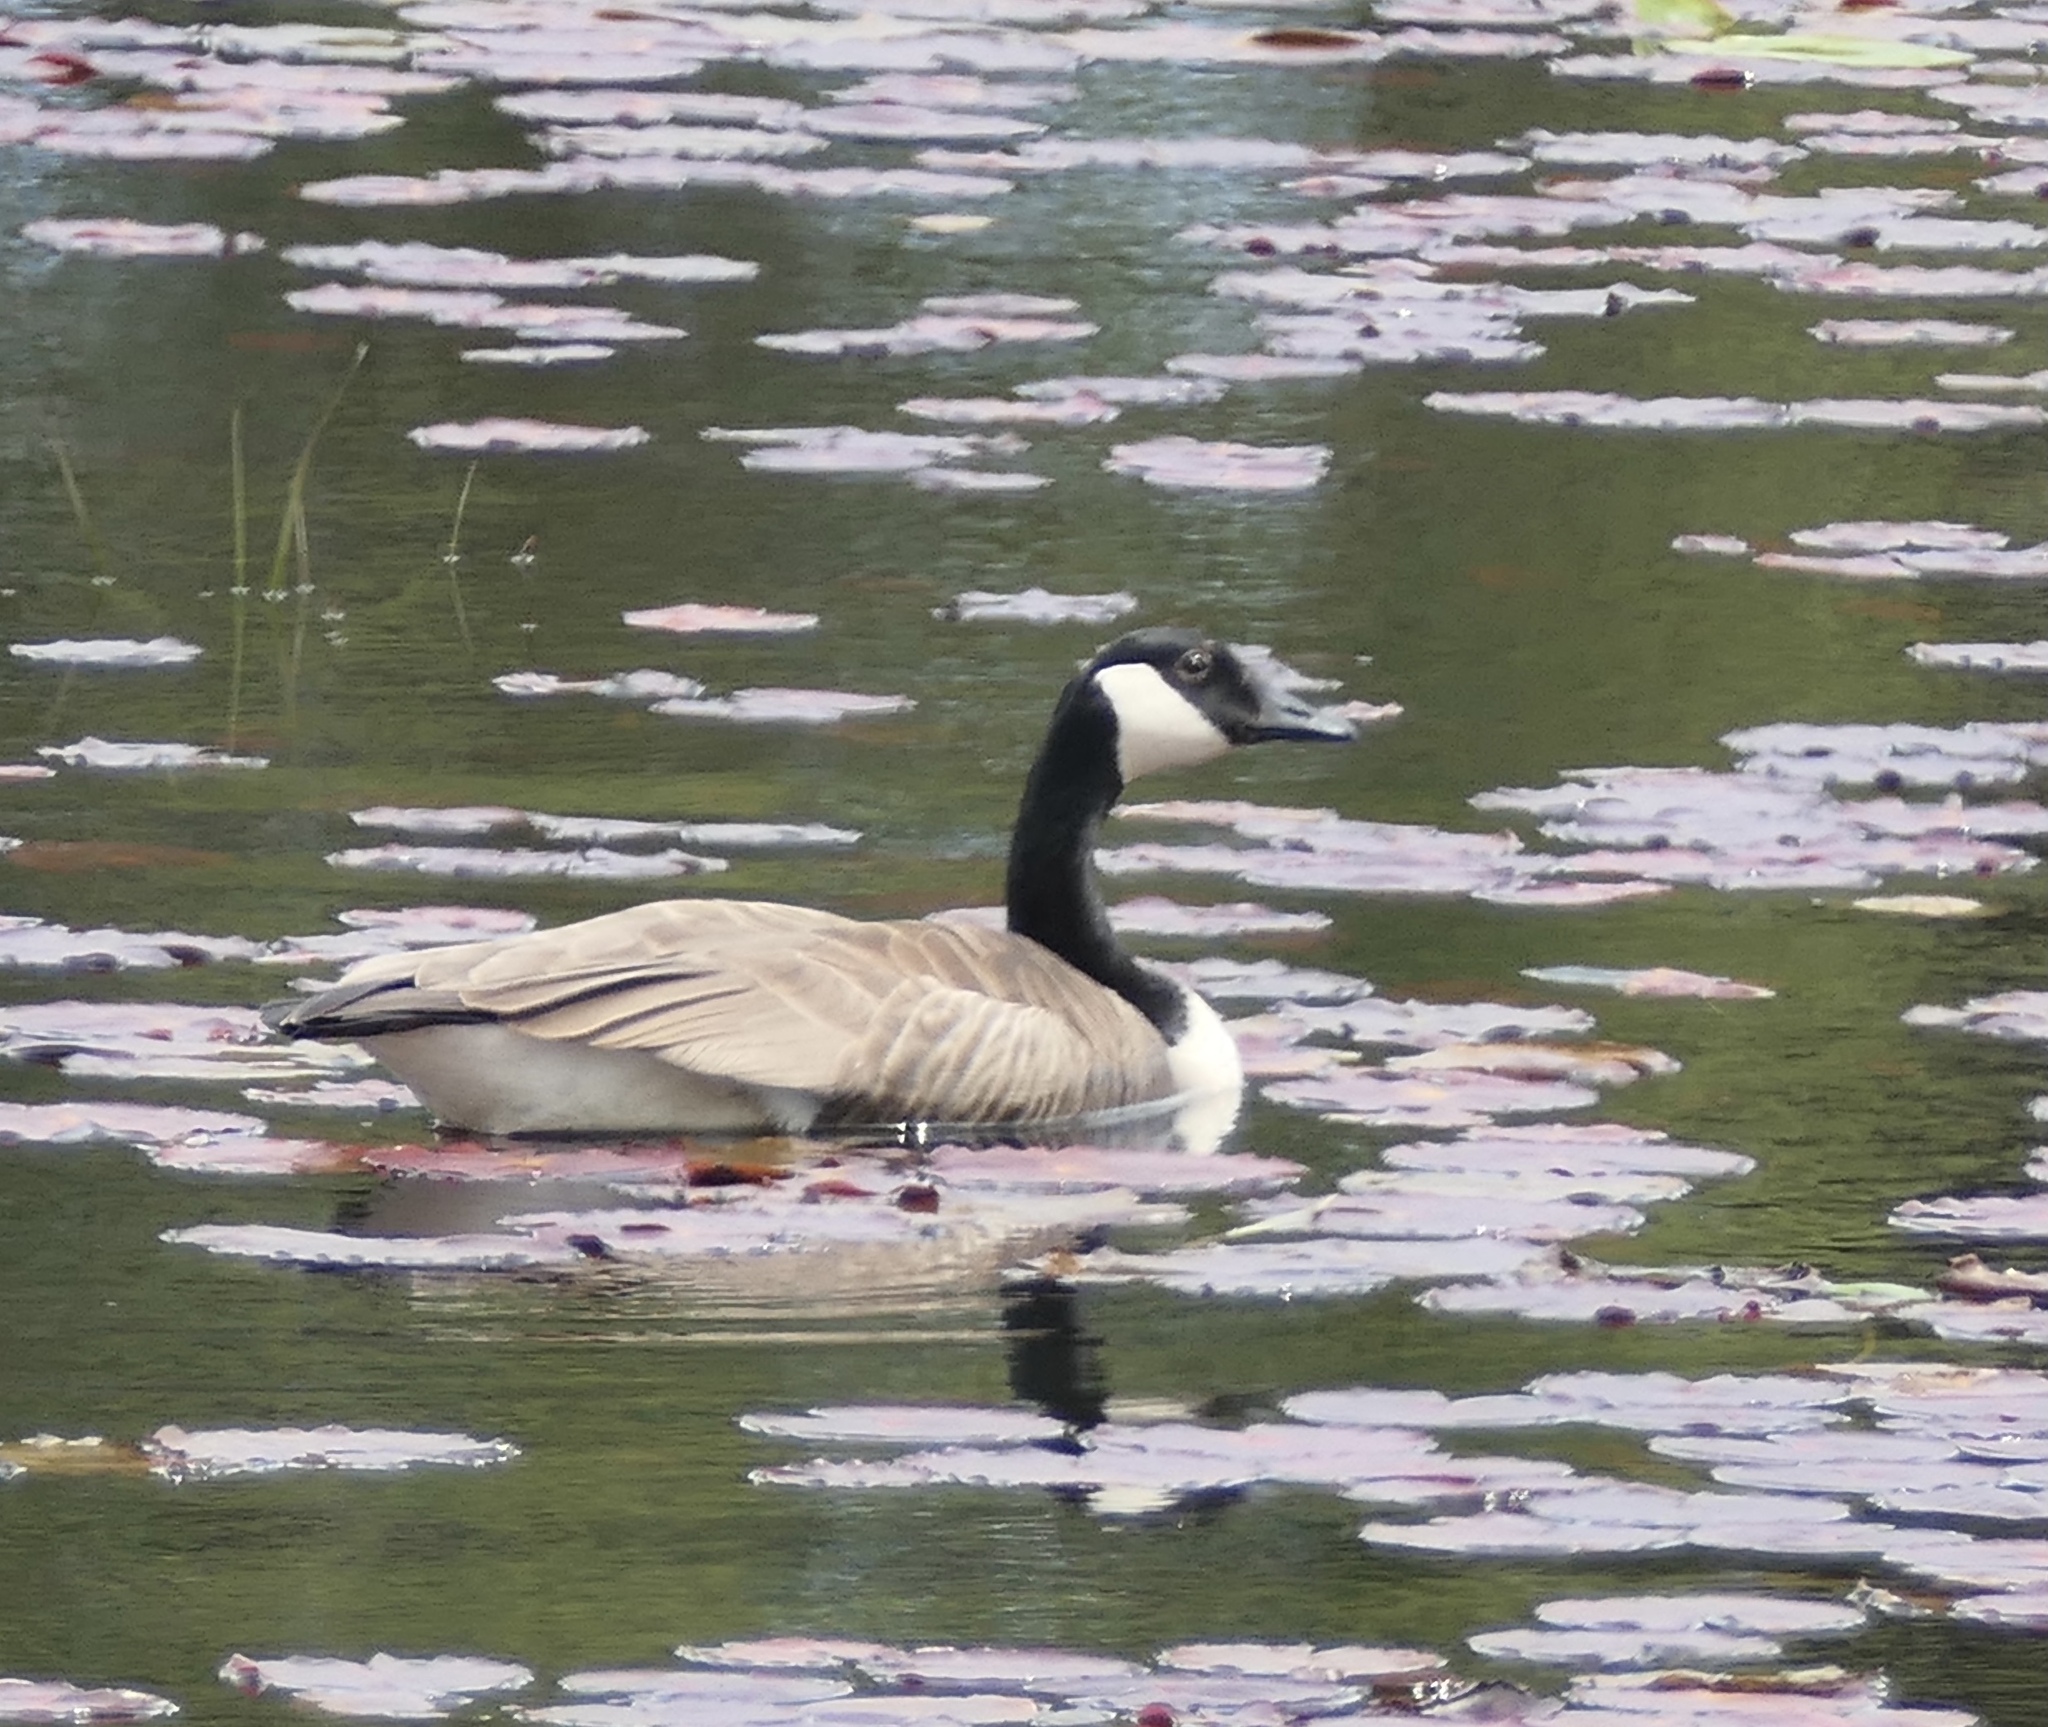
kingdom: Animalia
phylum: Chordata
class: Aves
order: Anseriformes
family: Anatidae
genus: Branta
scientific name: Branta canadensis
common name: Canada goose
